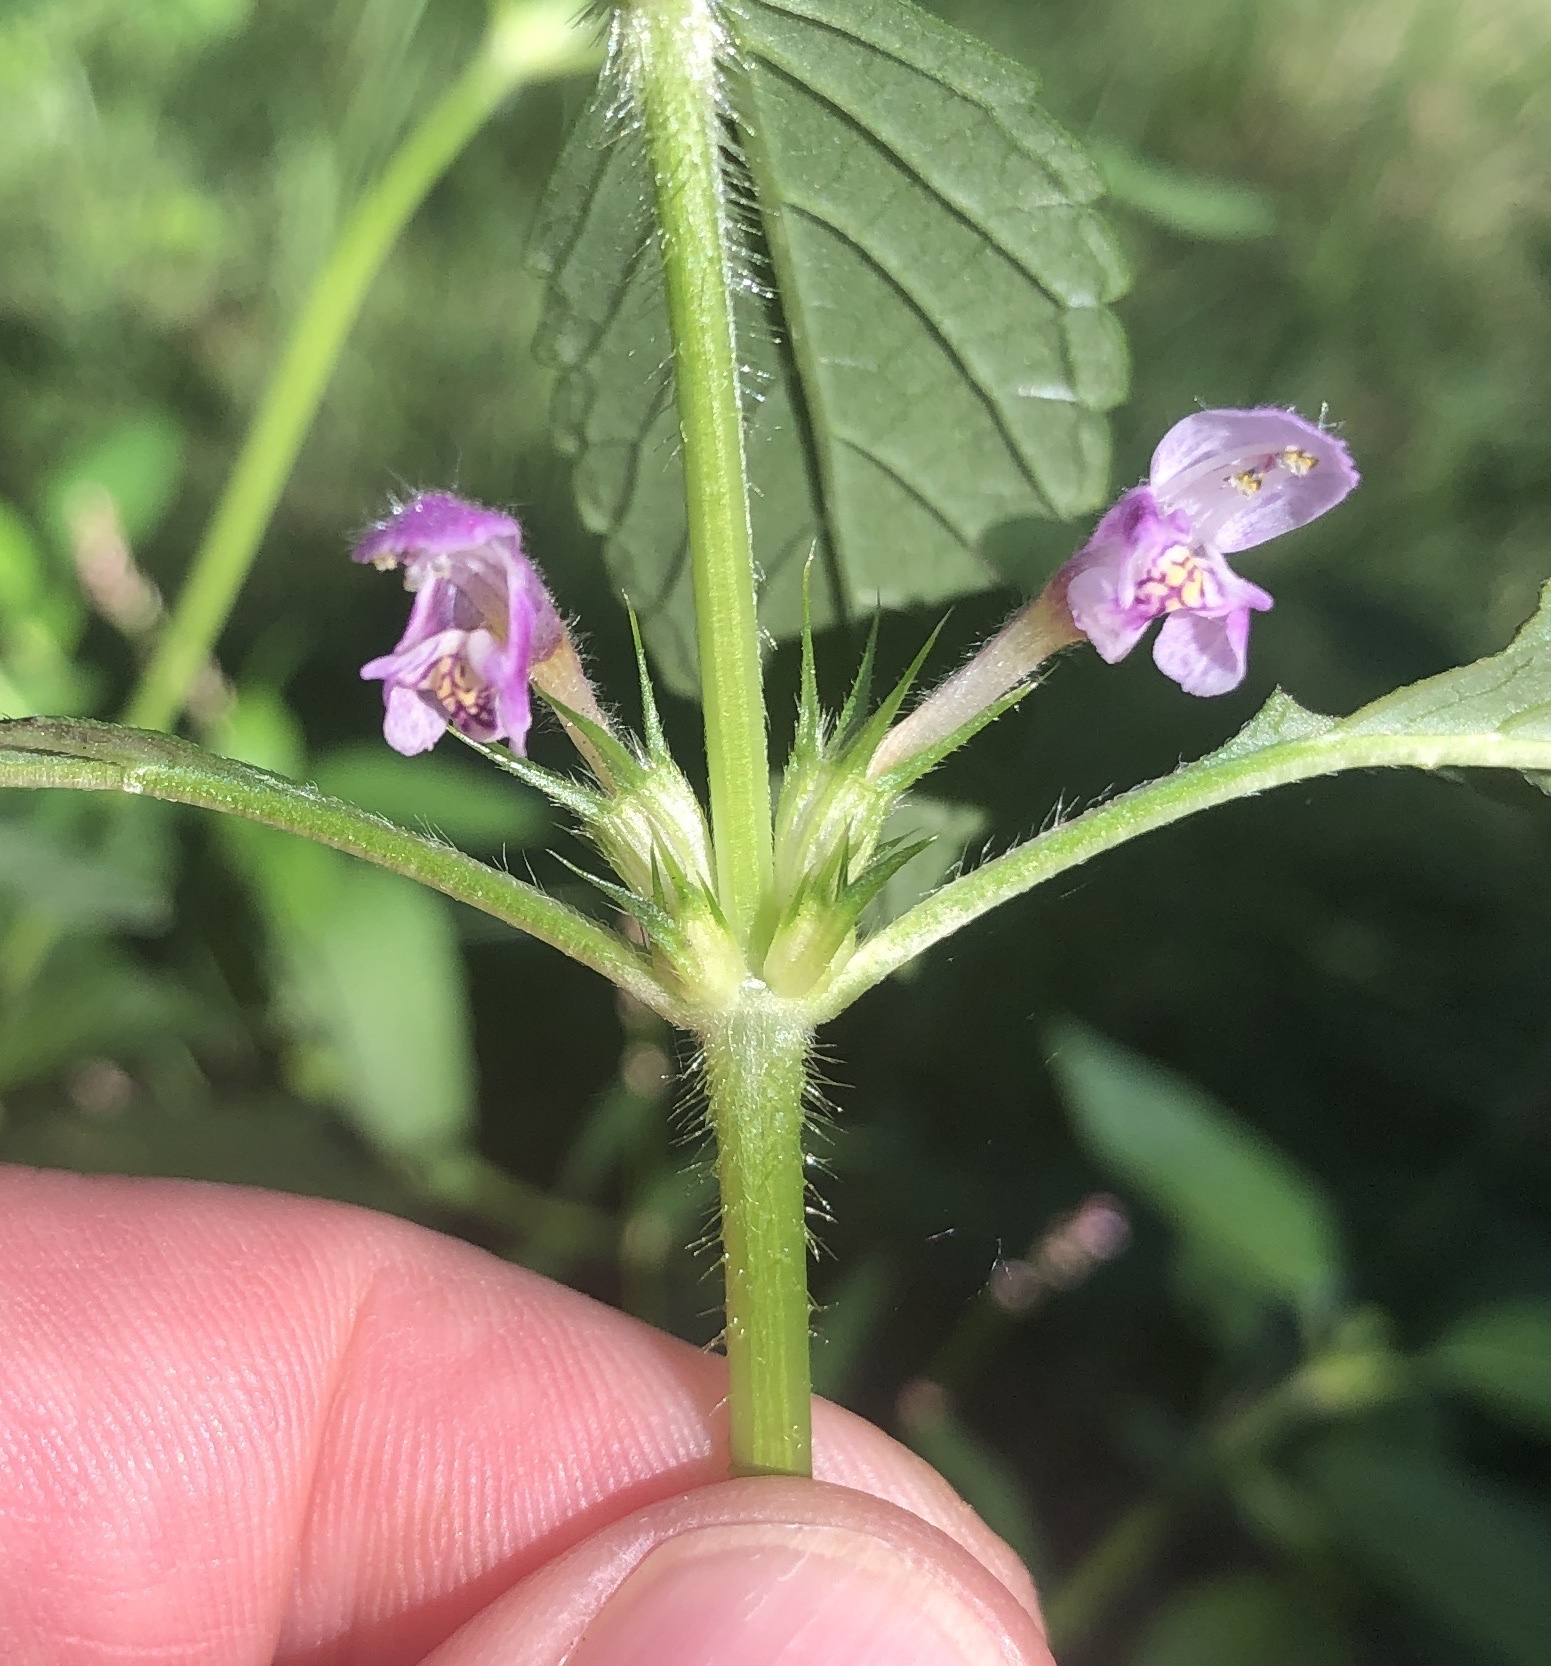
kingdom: Plantae
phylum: Tracheophyta
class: Magnoliopsida
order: Lamiales
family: Lamiaceae
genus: Galeopsis
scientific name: Galeopsis tetrahit
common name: Common hemp-nettle
